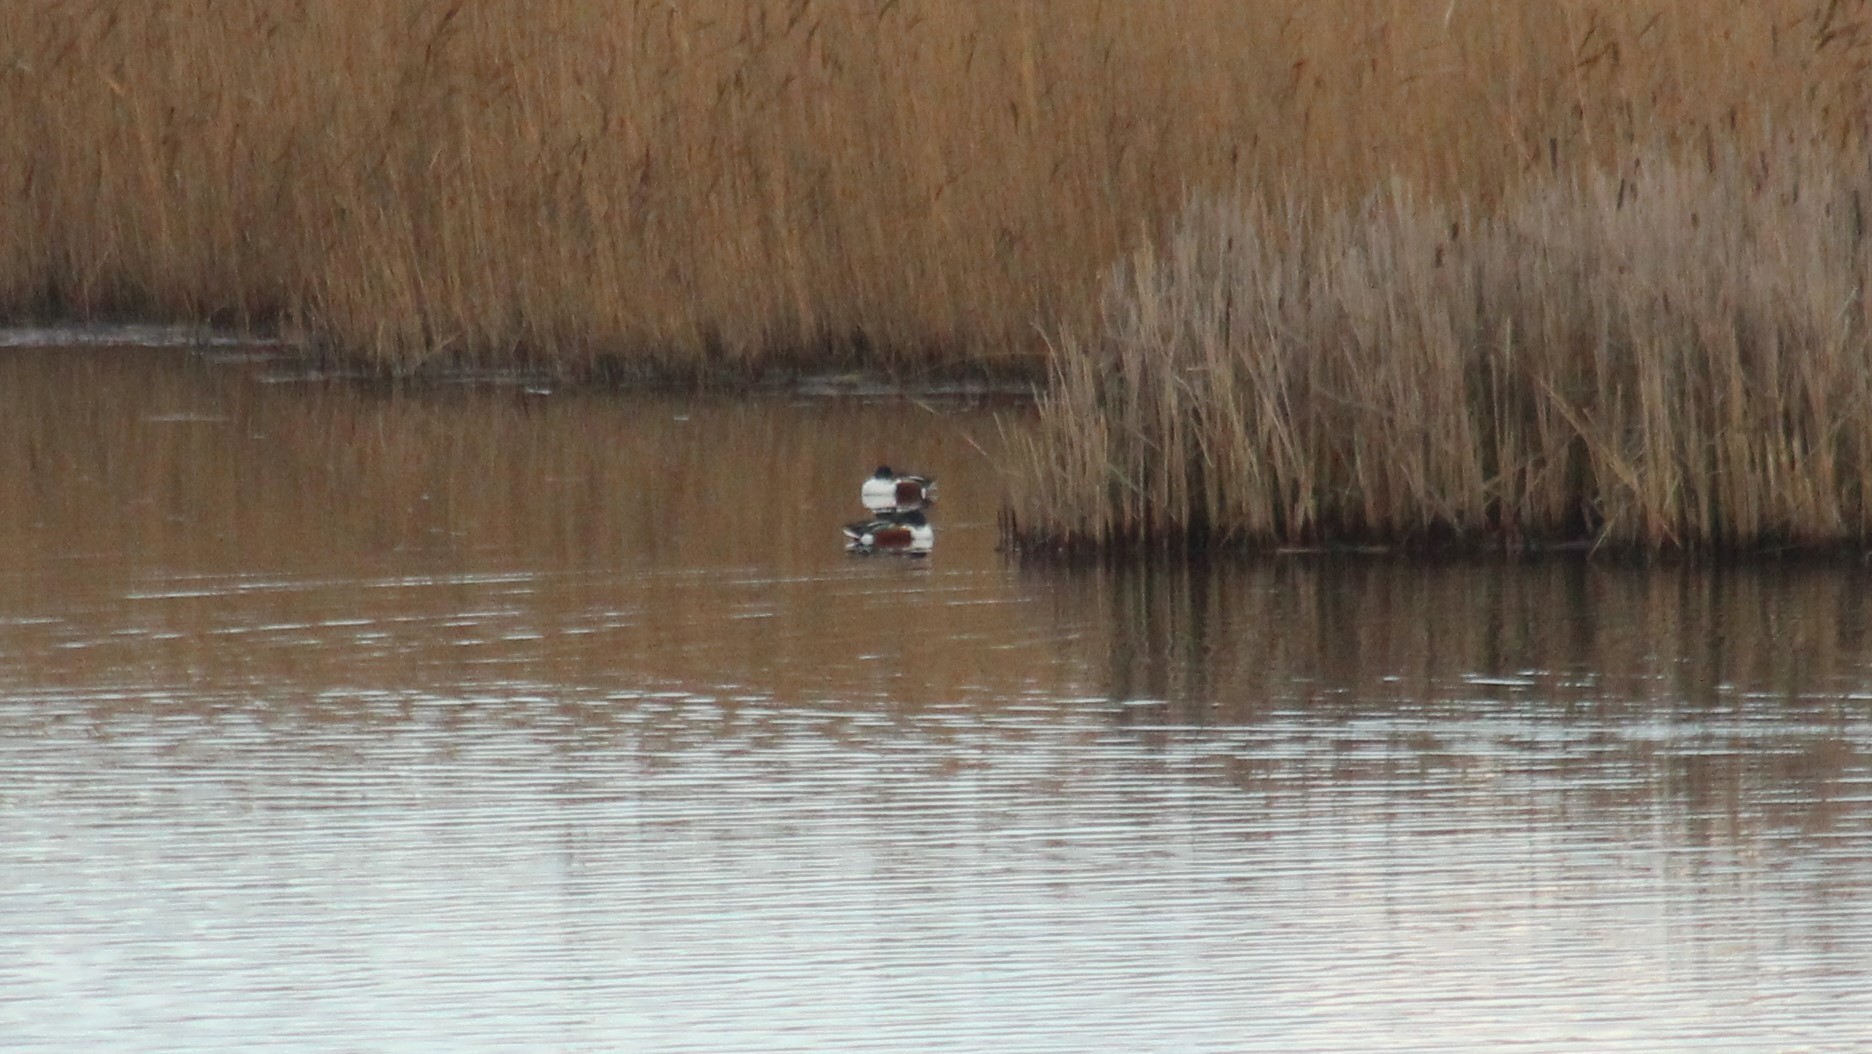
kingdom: Animalia
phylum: Chordata
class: Aves
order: Anseriformes
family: Anatidae
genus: Spatula
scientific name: Spatula clypeata
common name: Northern shoveler
